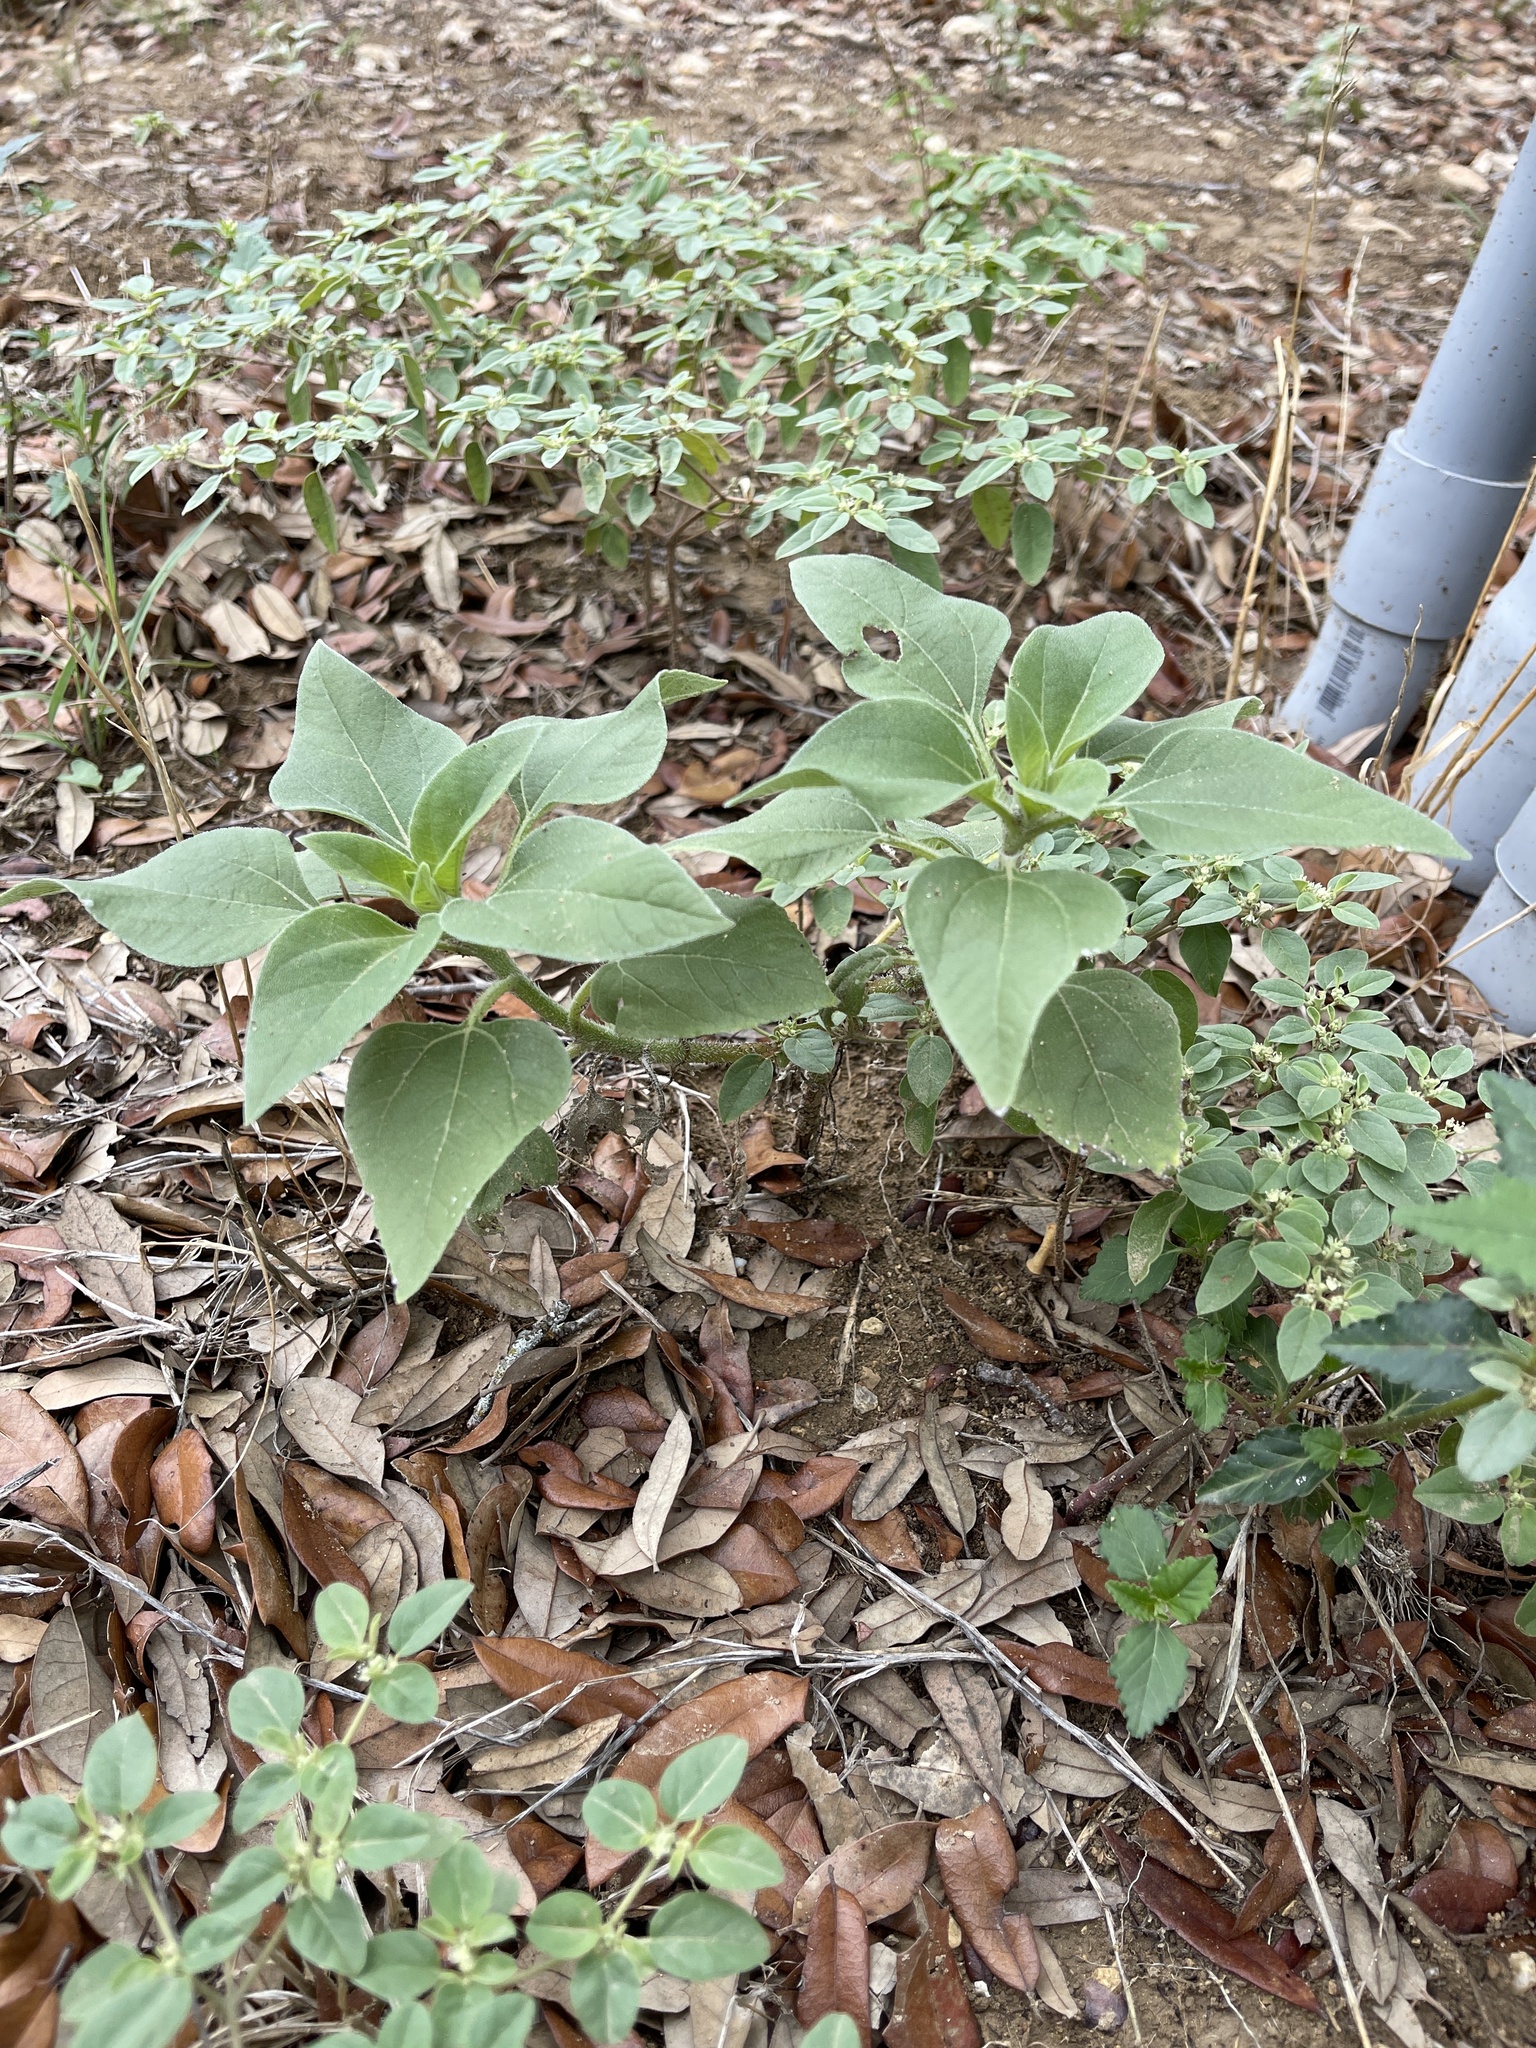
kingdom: Plantae
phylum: Tracheophyta
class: Magnoliopsida
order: Asterales
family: Asteraceae
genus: Viguiera
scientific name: Viguiera dentata
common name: Toothleaf
